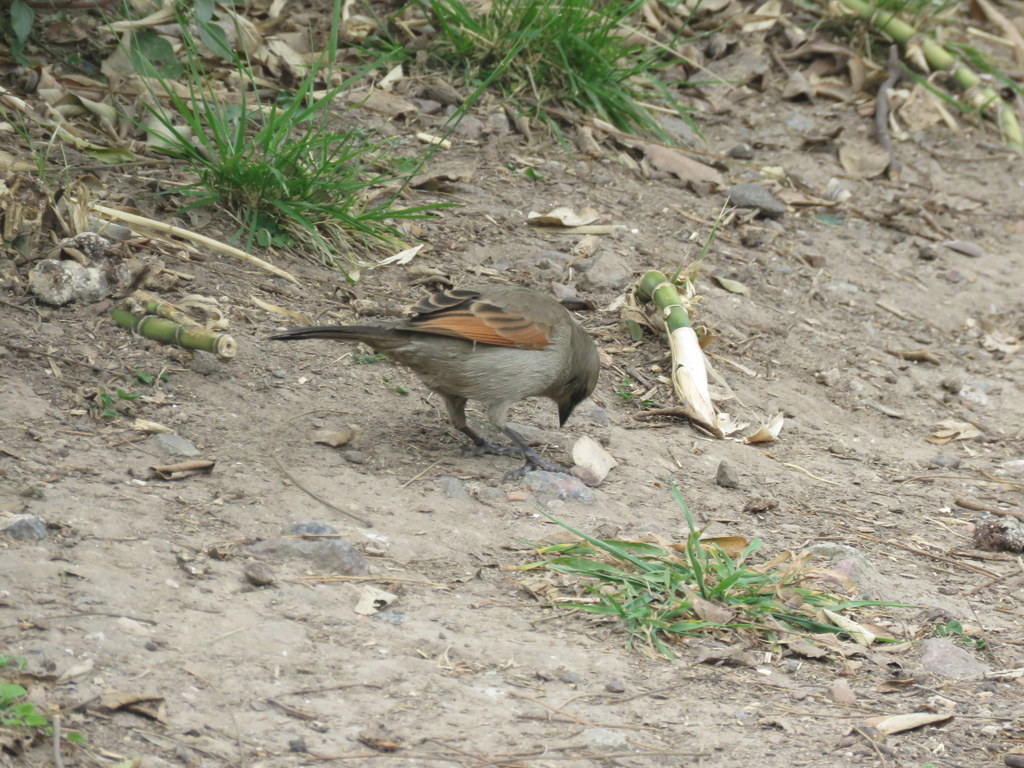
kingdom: Animalia
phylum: Chordata
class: Aves
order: Passeriformes
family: Icteridae
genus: Agelaioides
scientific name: Agelaioides badius
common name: Baywing
